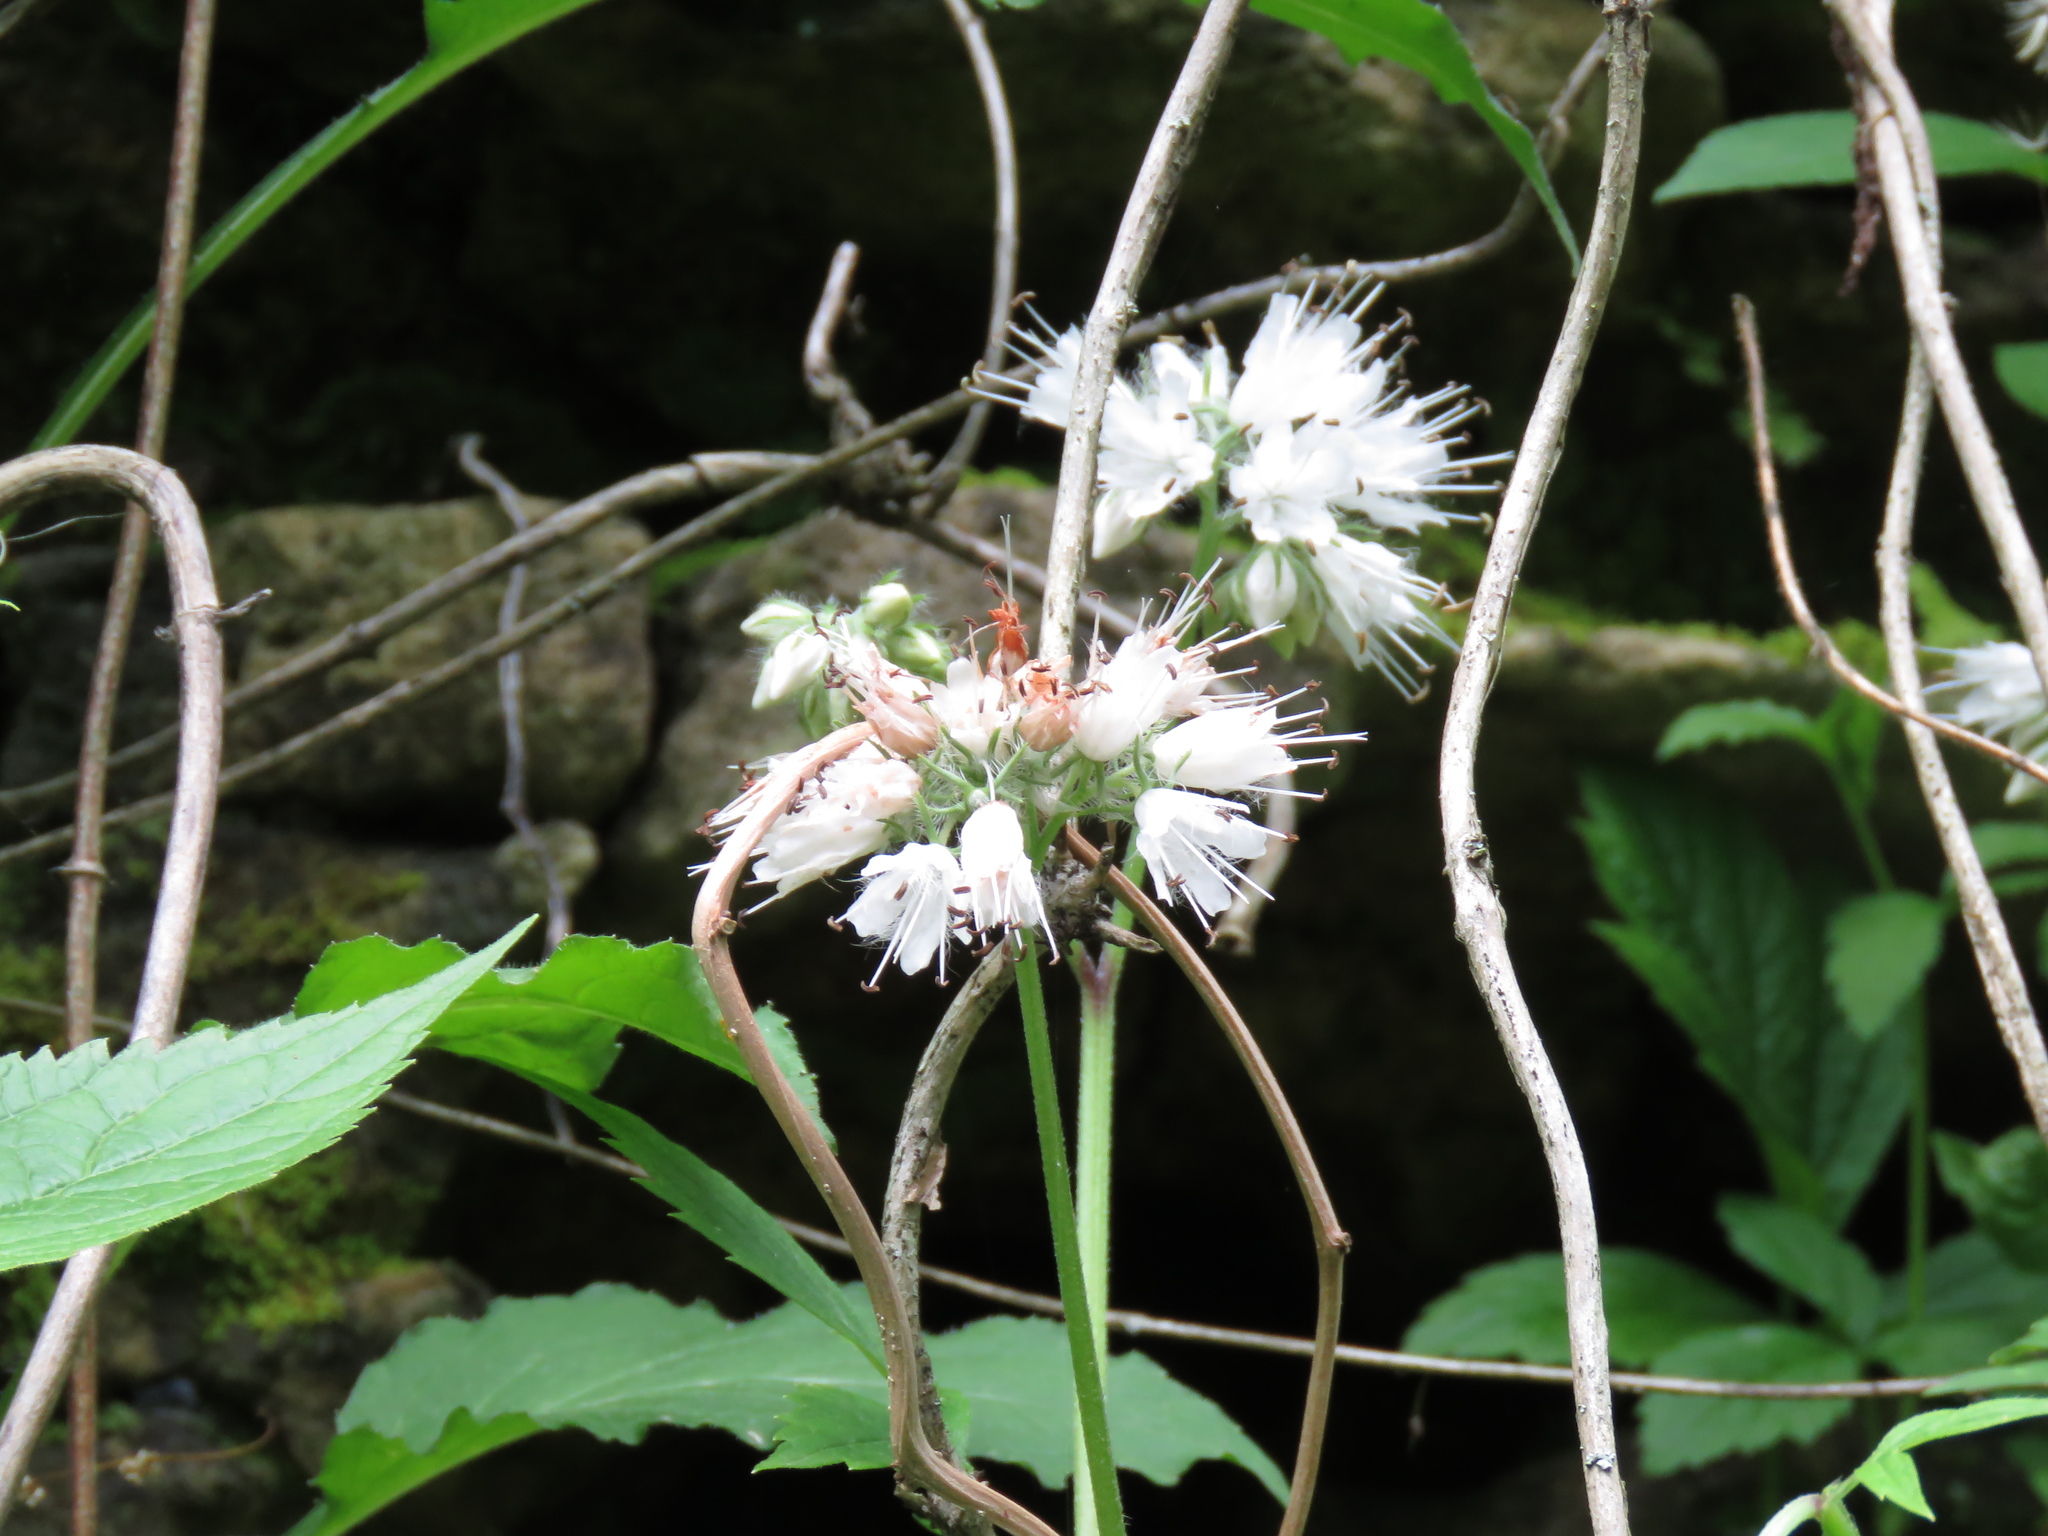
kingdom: Plantae
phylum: Tracheophyta
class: Magnoliopsida
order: Boraginales
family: Hydrophyllaceae
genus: Hydrophyllum
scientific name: Hydrophyllum virginianum
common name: Virginia waterleaf
